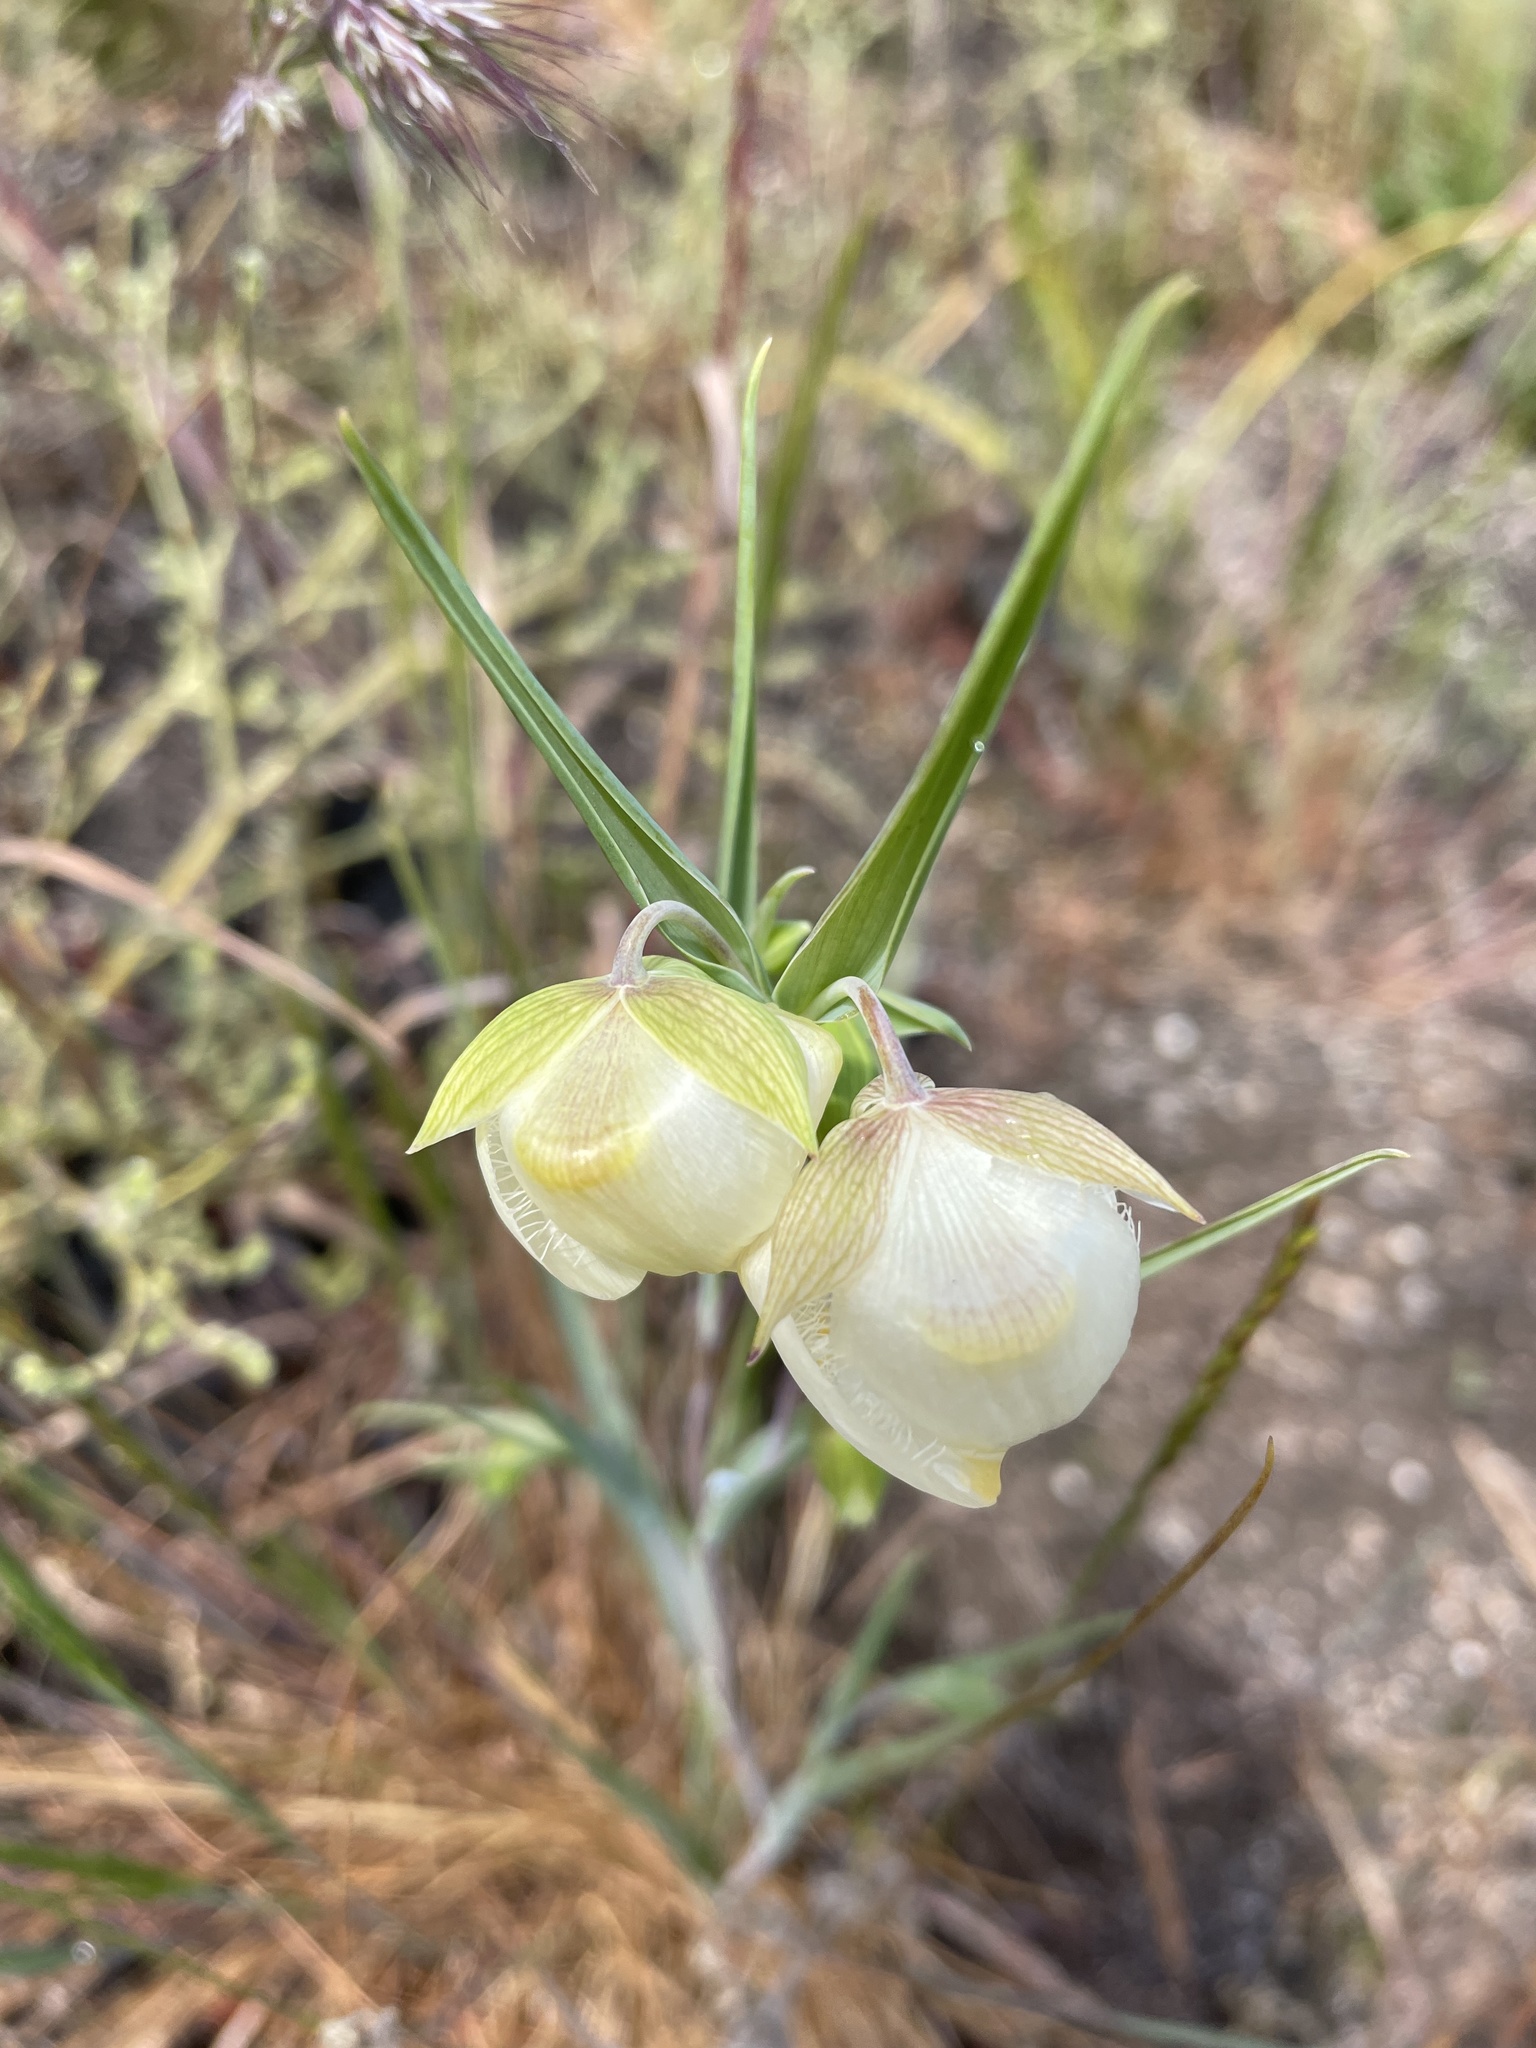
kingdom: Plantae
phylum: Tracheophyta
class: Liliopsida
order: Liliales
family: Liliaceae
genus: Calochortus
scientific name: Calochortus albus
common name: Fairy-lantern
